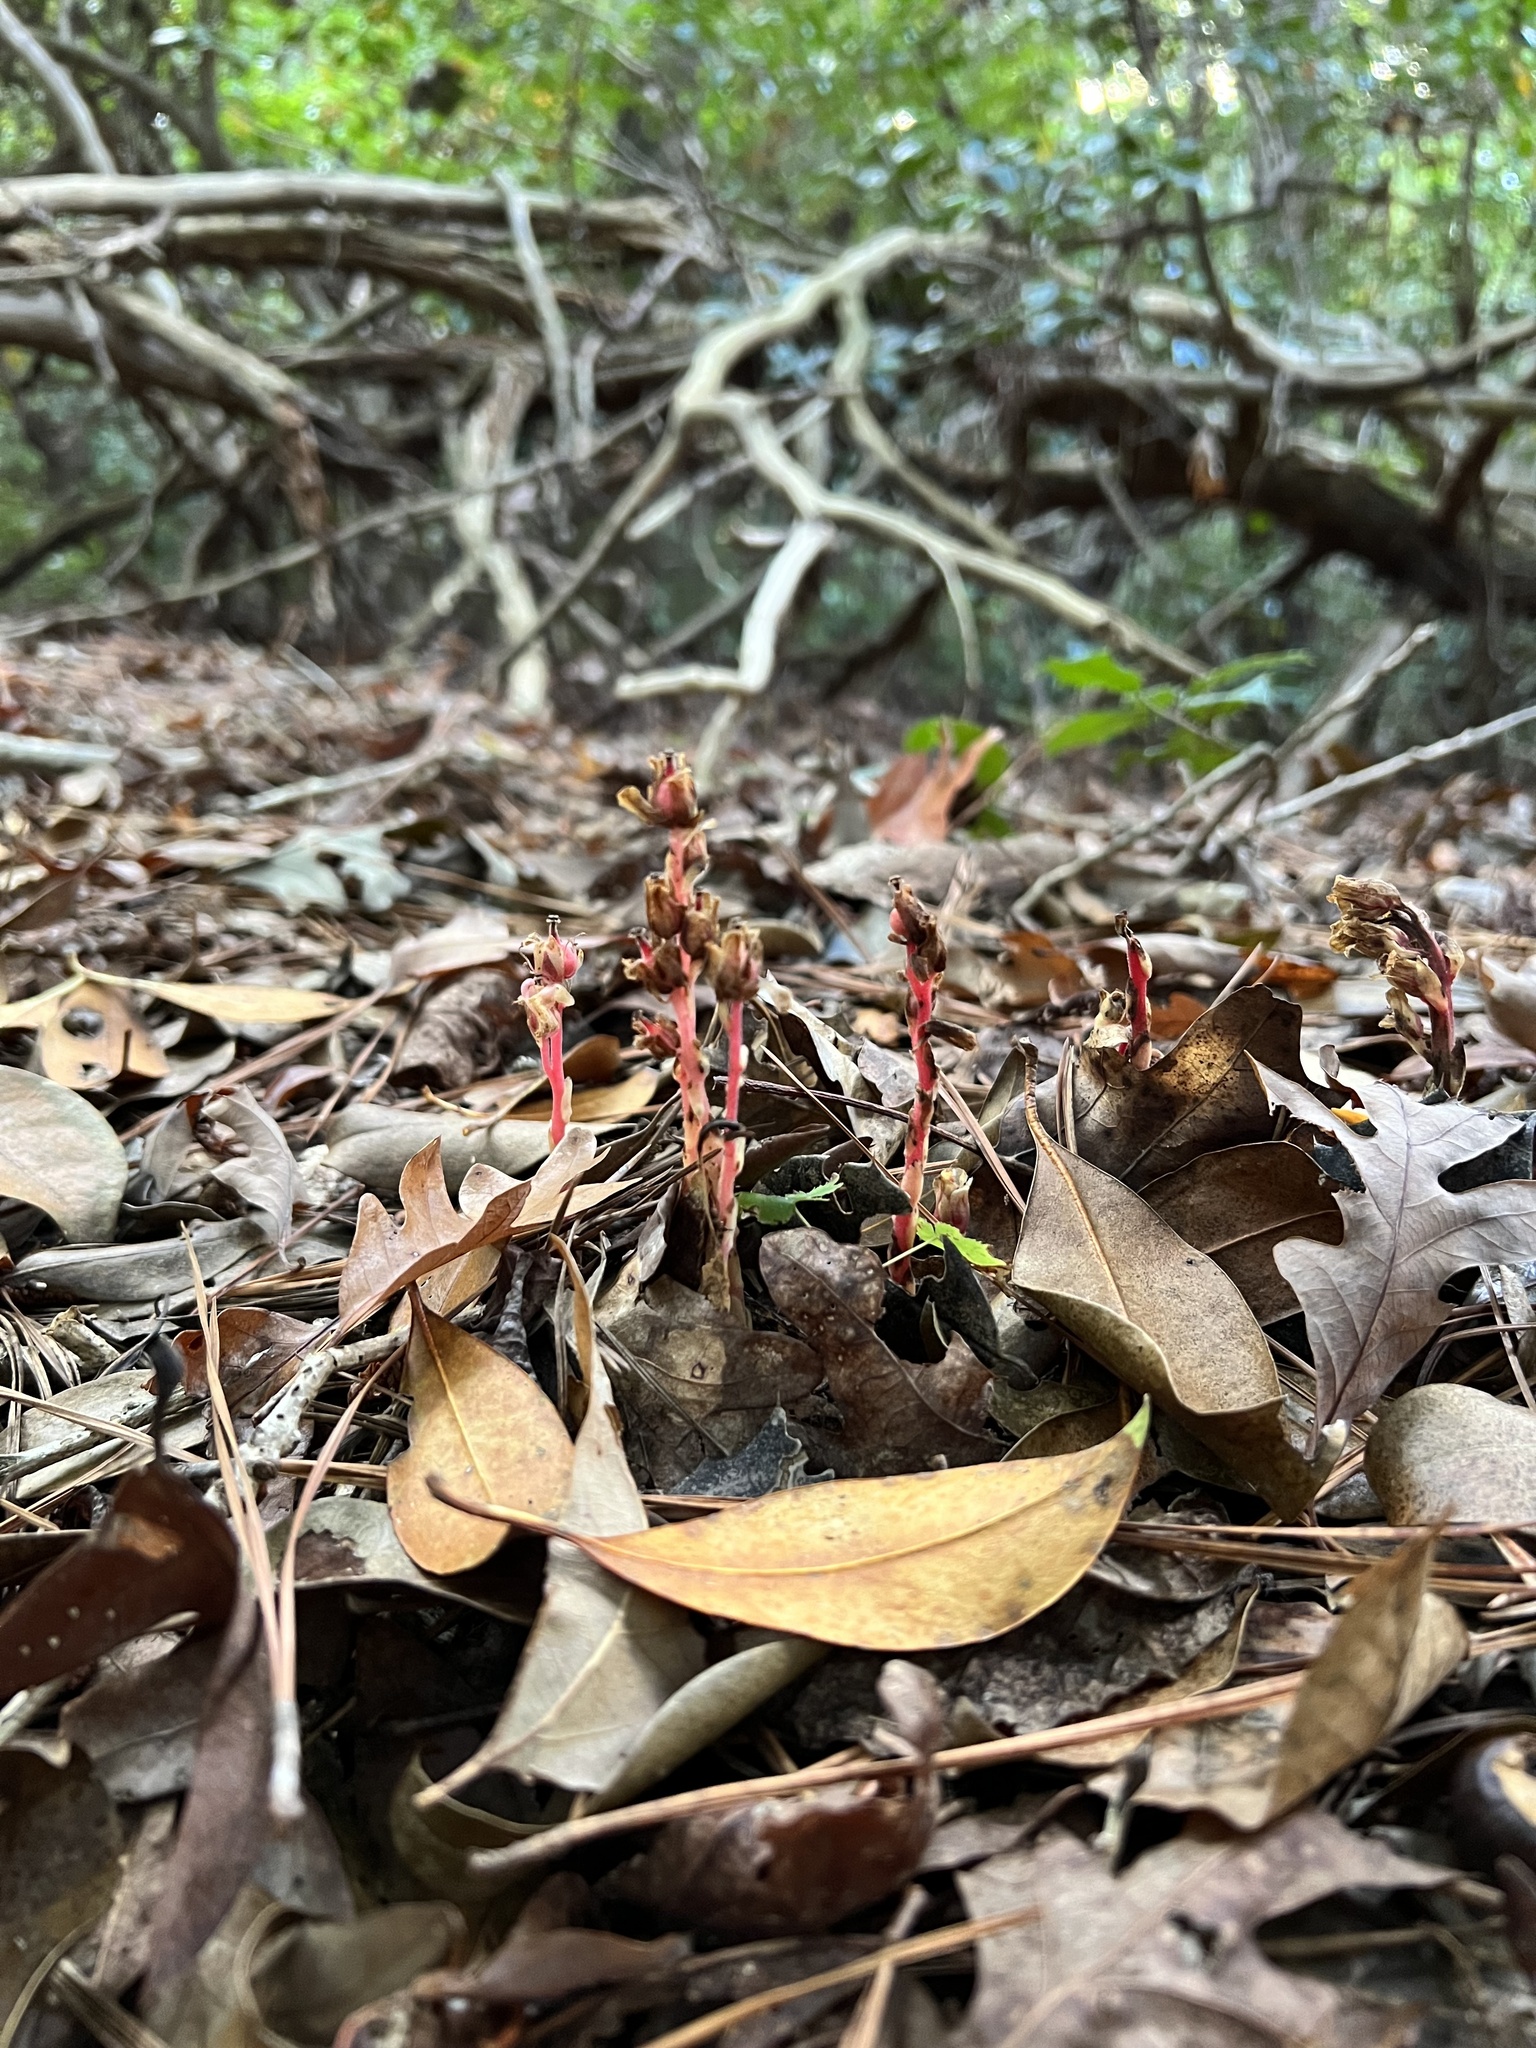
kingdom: Plantae
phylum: Tracheophyta
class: Magnoliopsida
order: Ericales
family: Ericaceae
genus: Hypopitys
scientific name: Hypopitys monotropa
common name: Yellow bird's-nest
